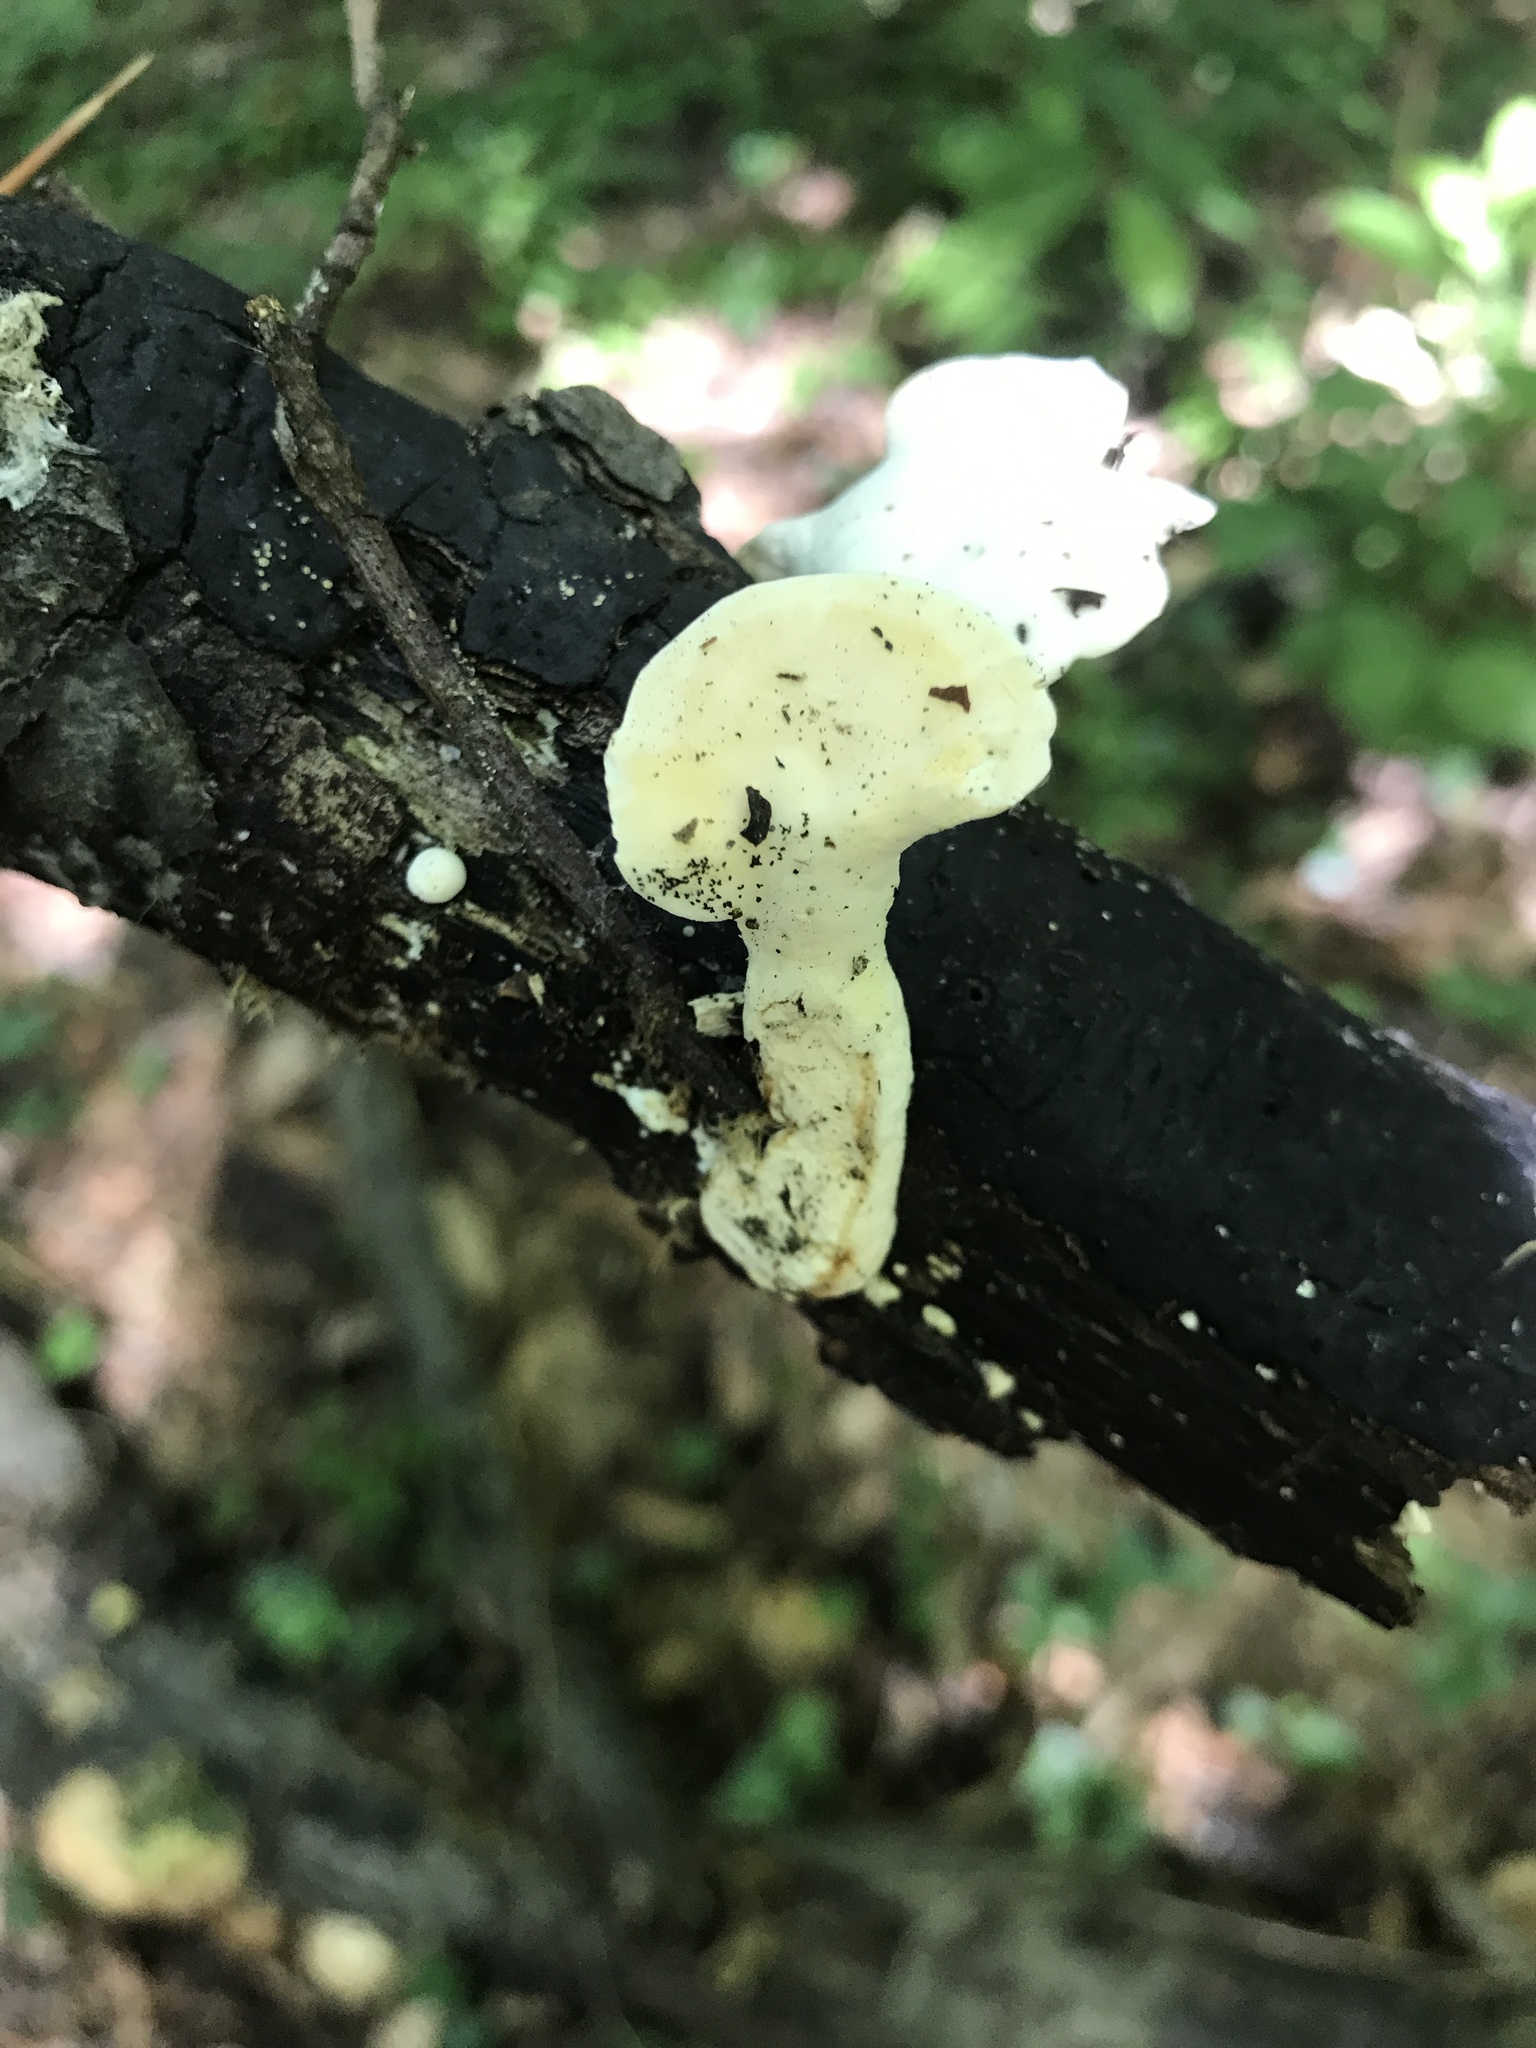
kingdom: Fungi
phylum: Basidiomycota
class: Agaricomycetes
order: Polyporales
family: Steccherinaceae
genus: Loweomyces
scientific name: Loweomyces fractipes
